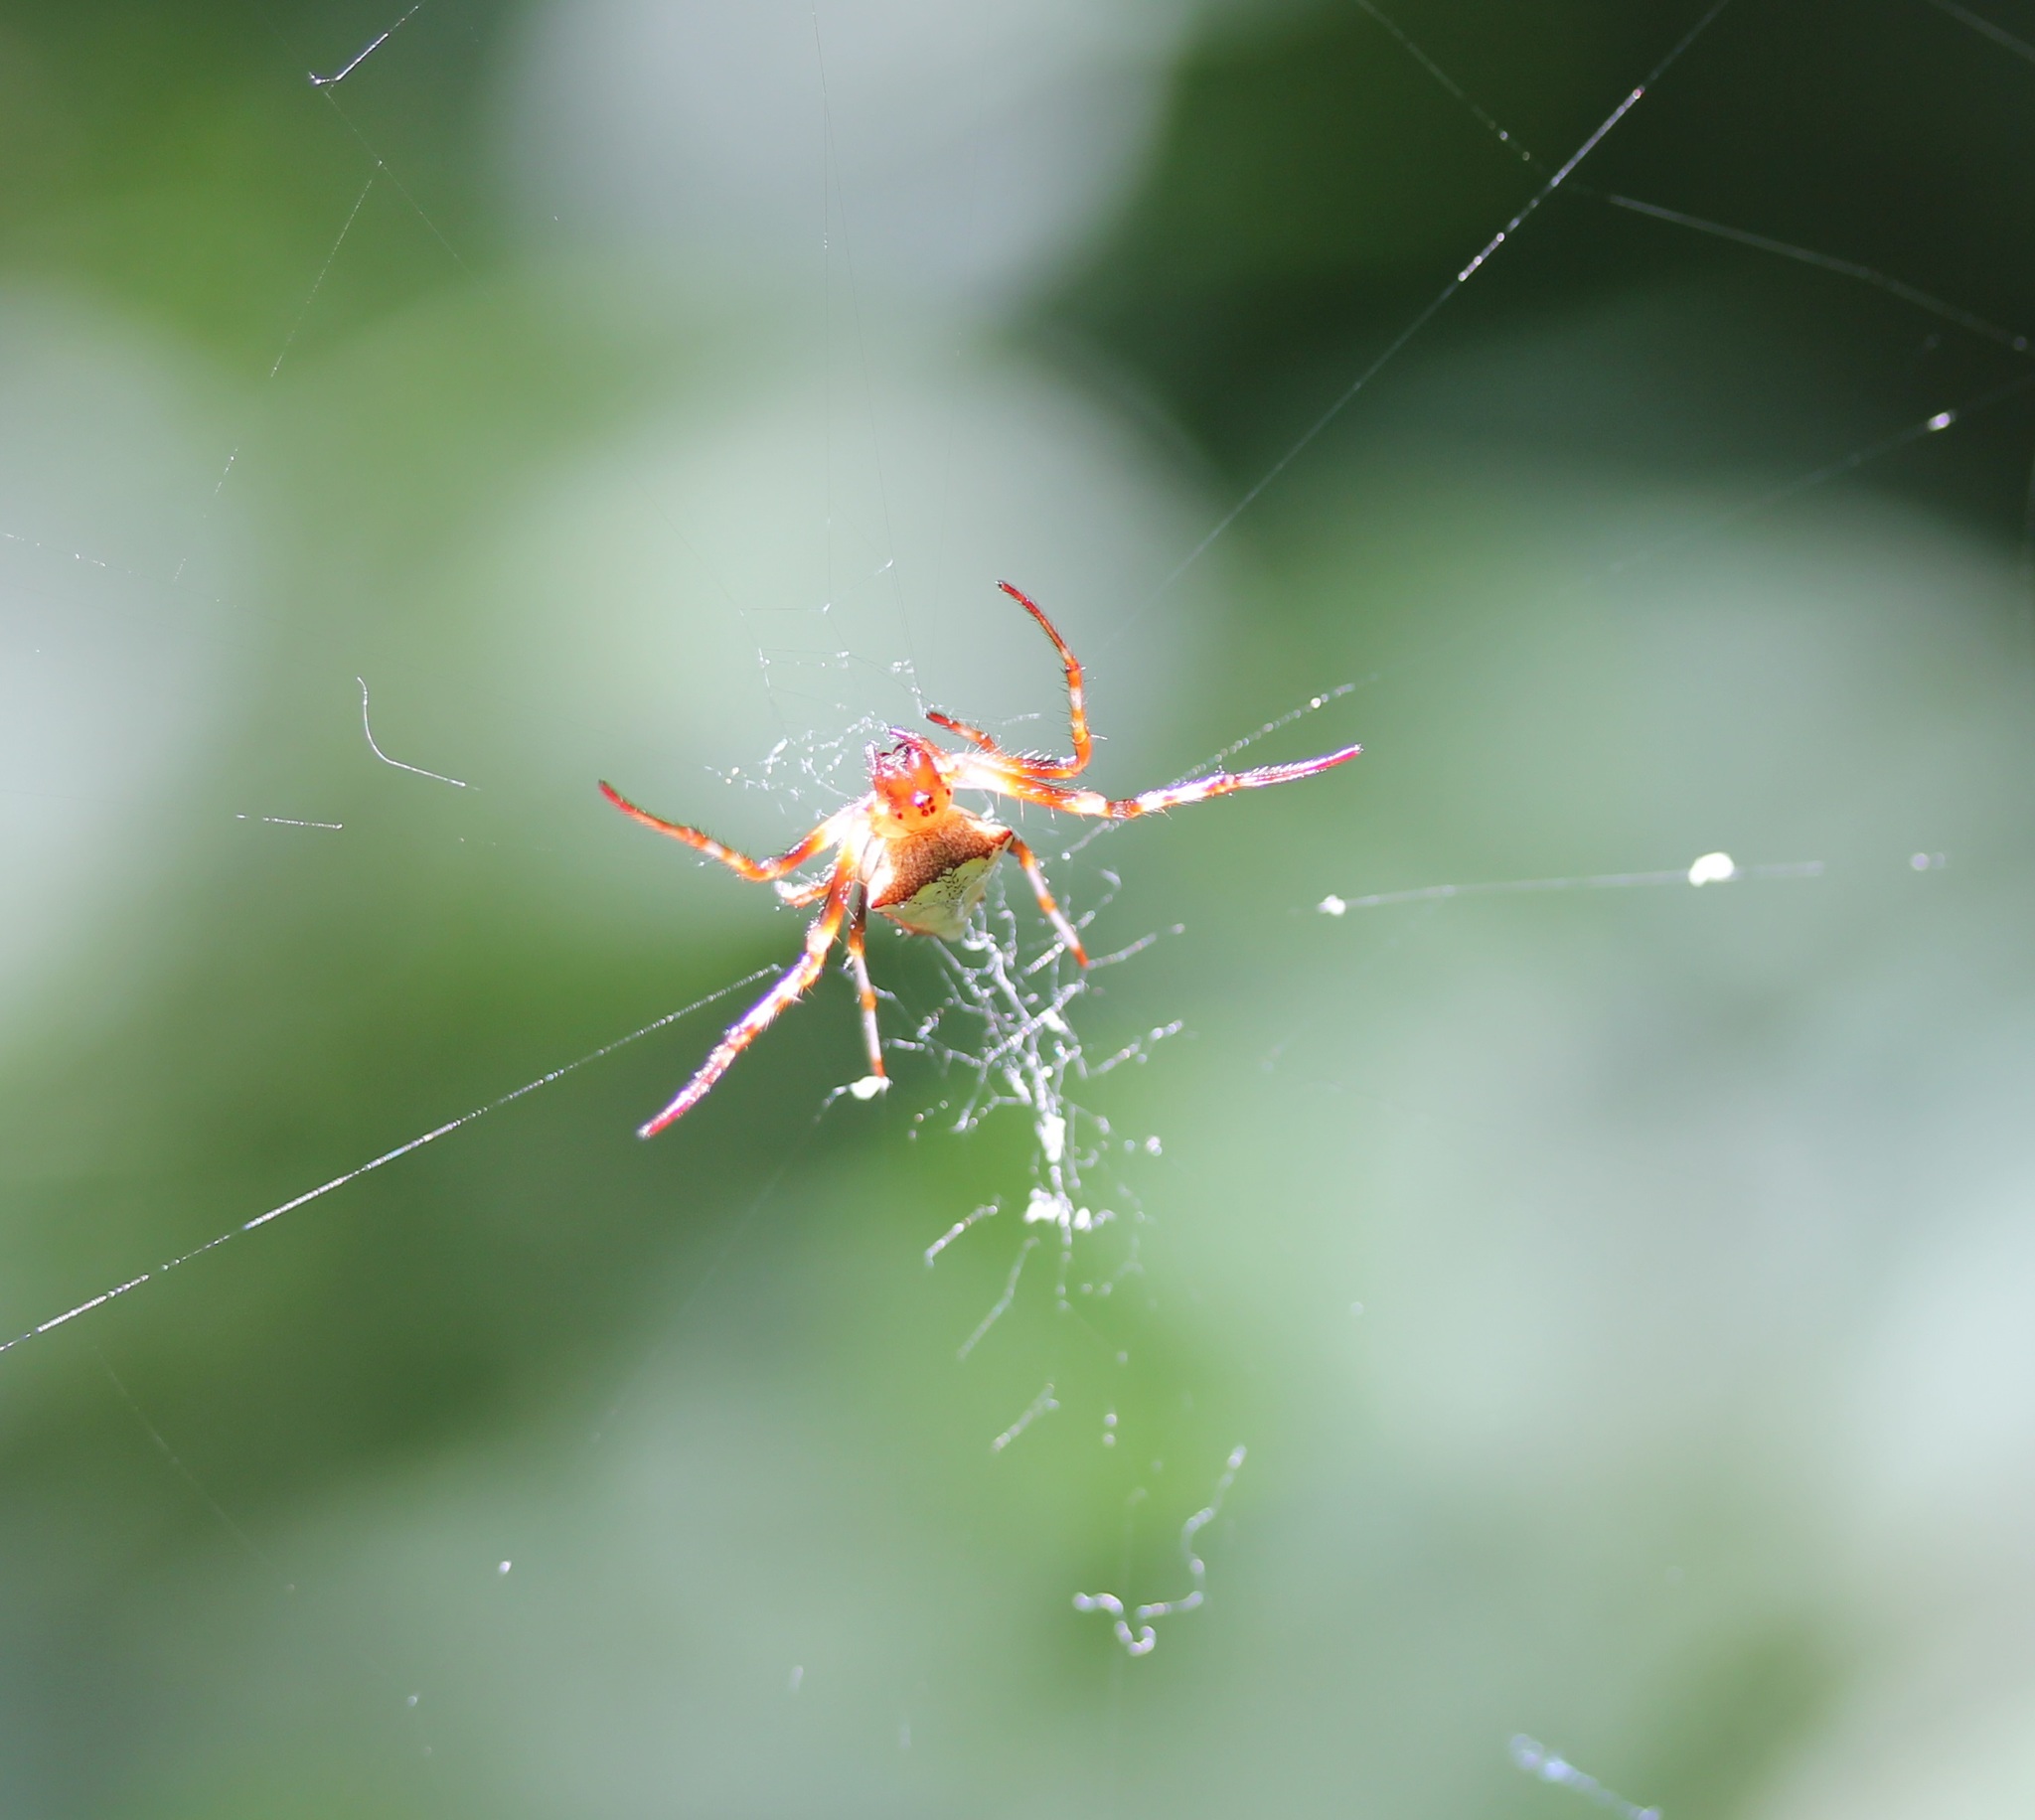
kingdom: Animalia
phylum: Arthropoda
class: Arachnida
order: Araneae
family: Araneidae
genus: Verrucosa
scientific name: Verrucosa arenata
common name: Orb weavers
